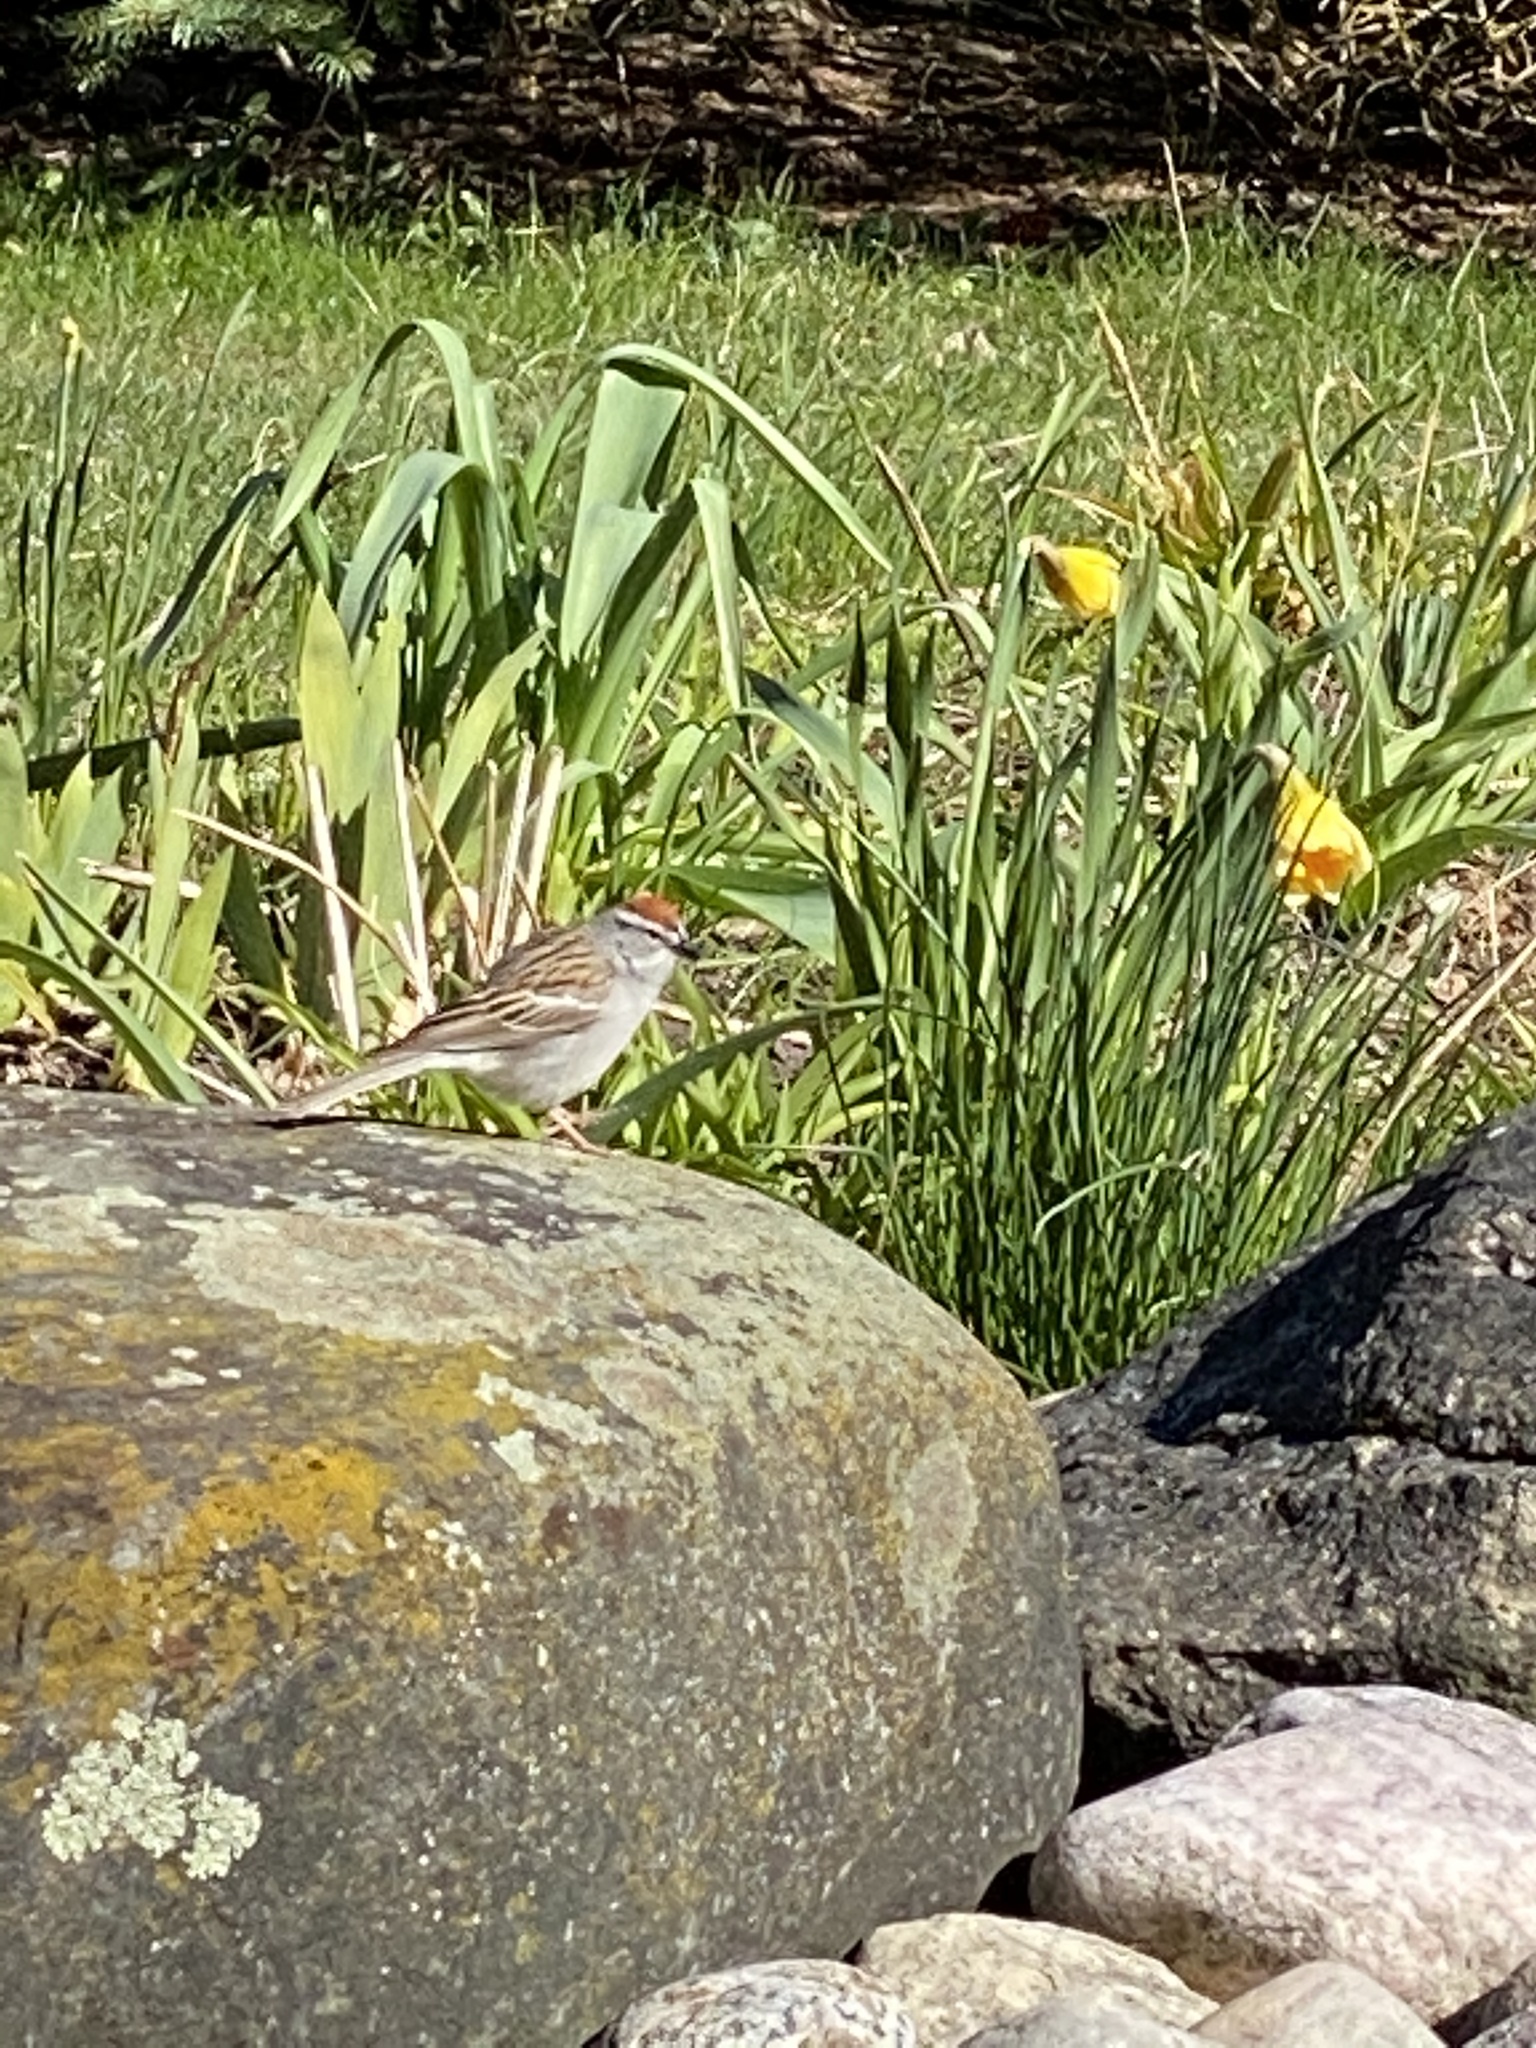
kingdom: Animalia
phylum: Chordata
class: Aves
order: Passeriformes
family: Passerellidae
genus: Spizella
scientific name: Spizella passerina
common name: Chipping sparrow
